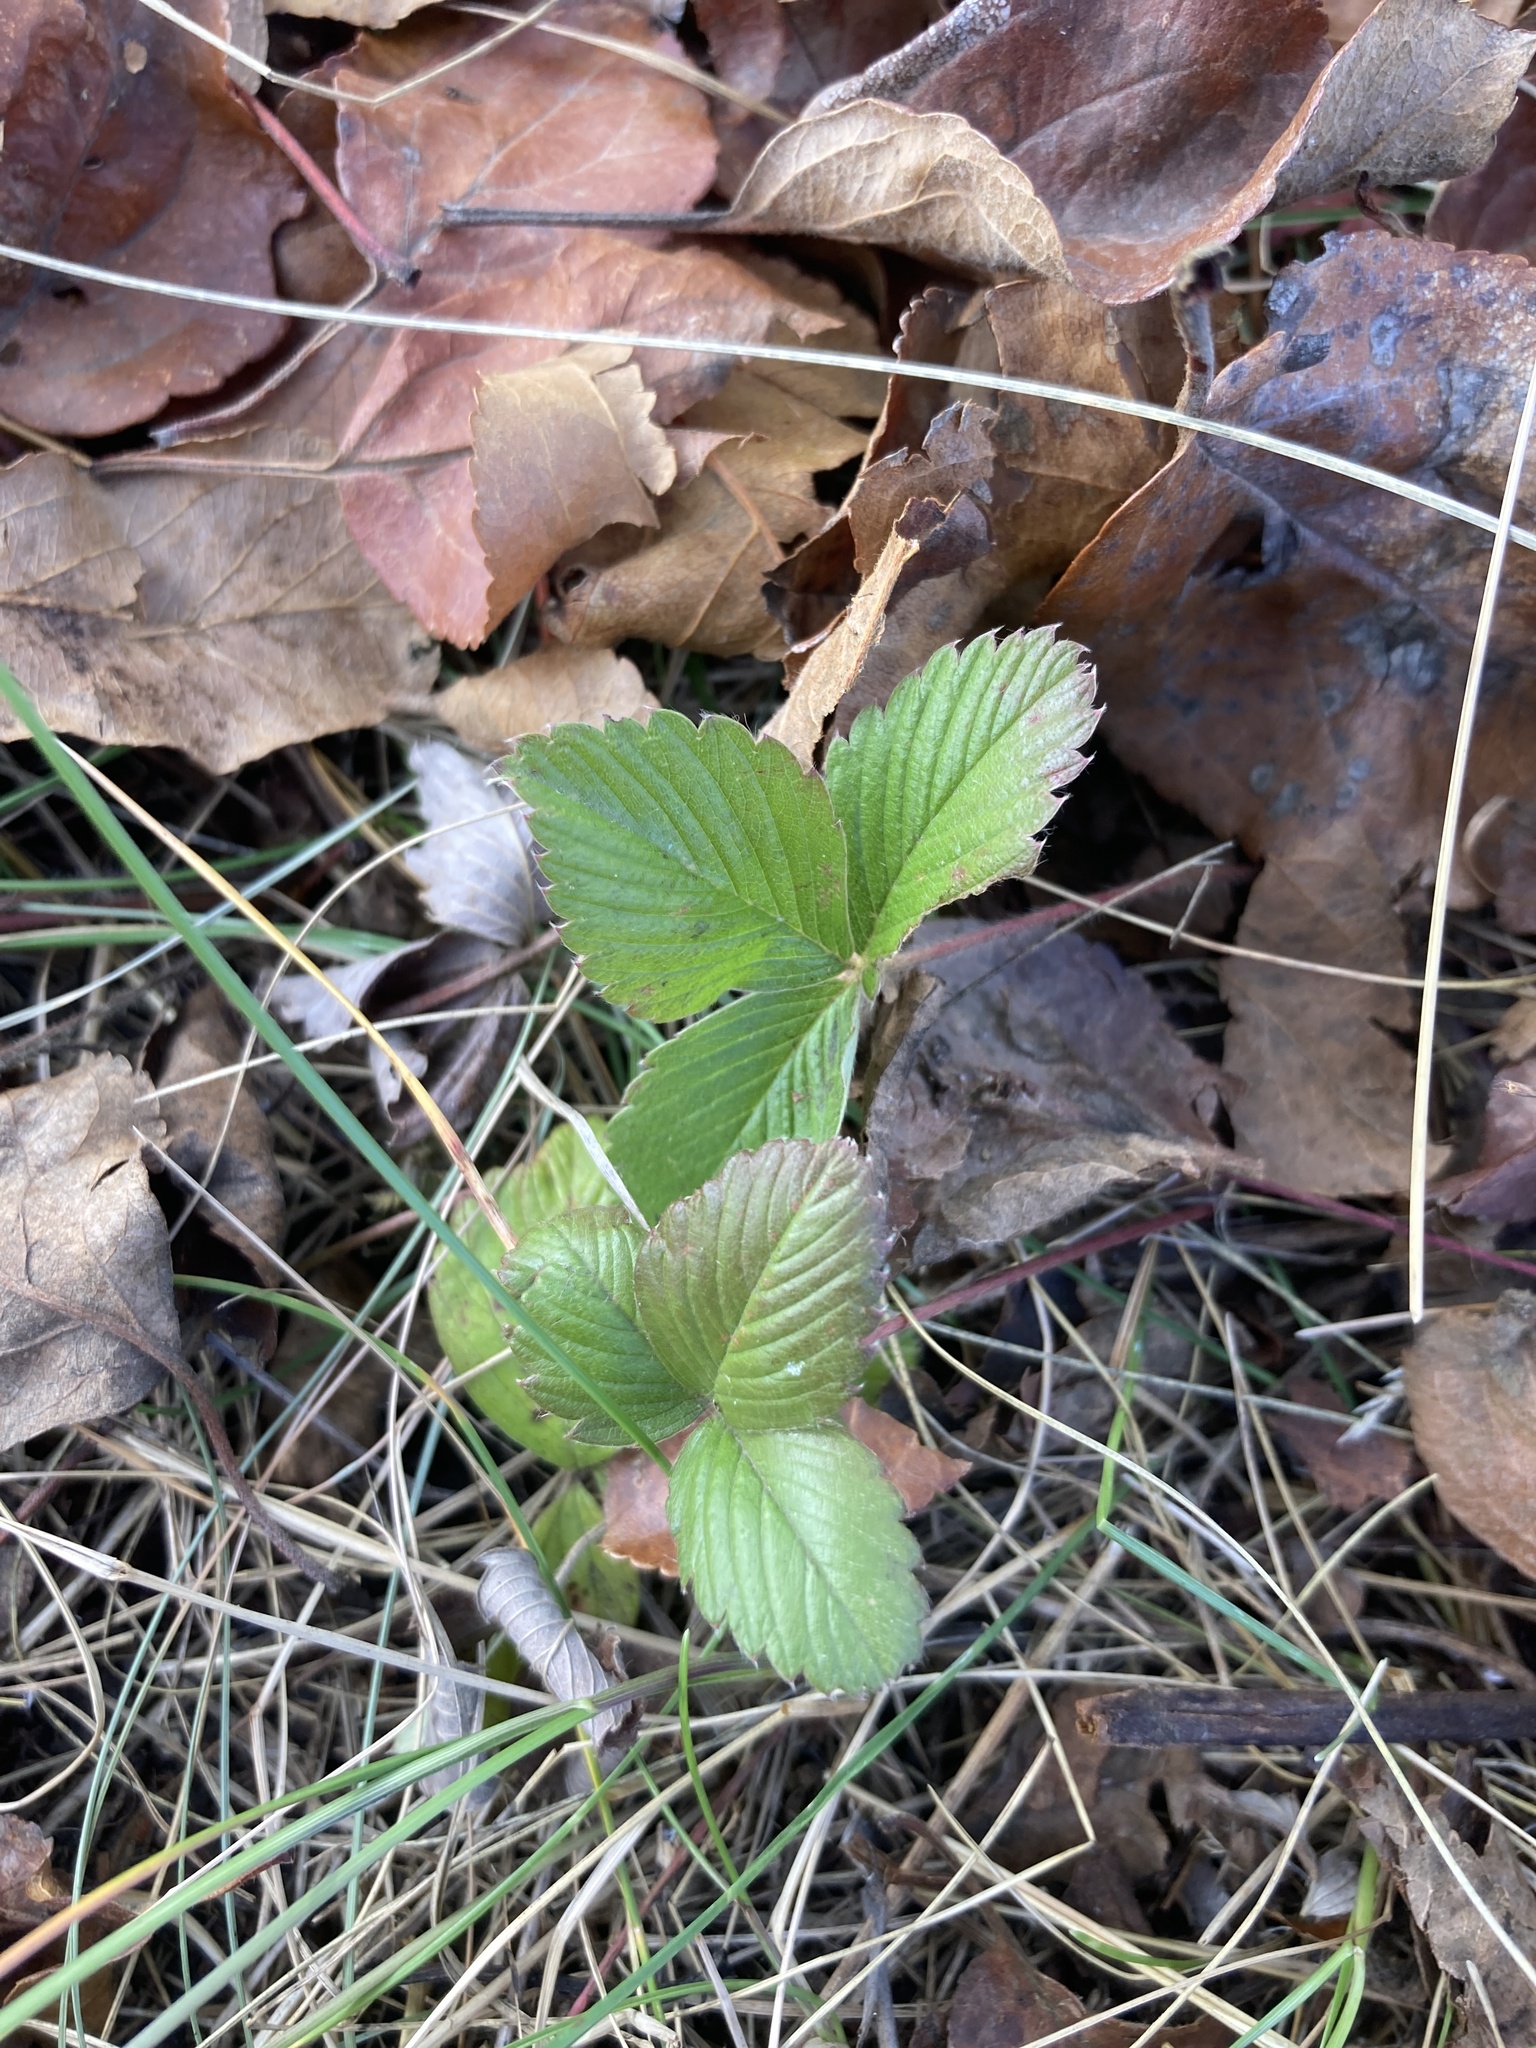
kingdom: Plantae
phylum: Tracheophyta
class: Magnoliopsida
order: Rosales
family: Rosaceae
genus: Fragaria
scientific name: Fragaria viridis
